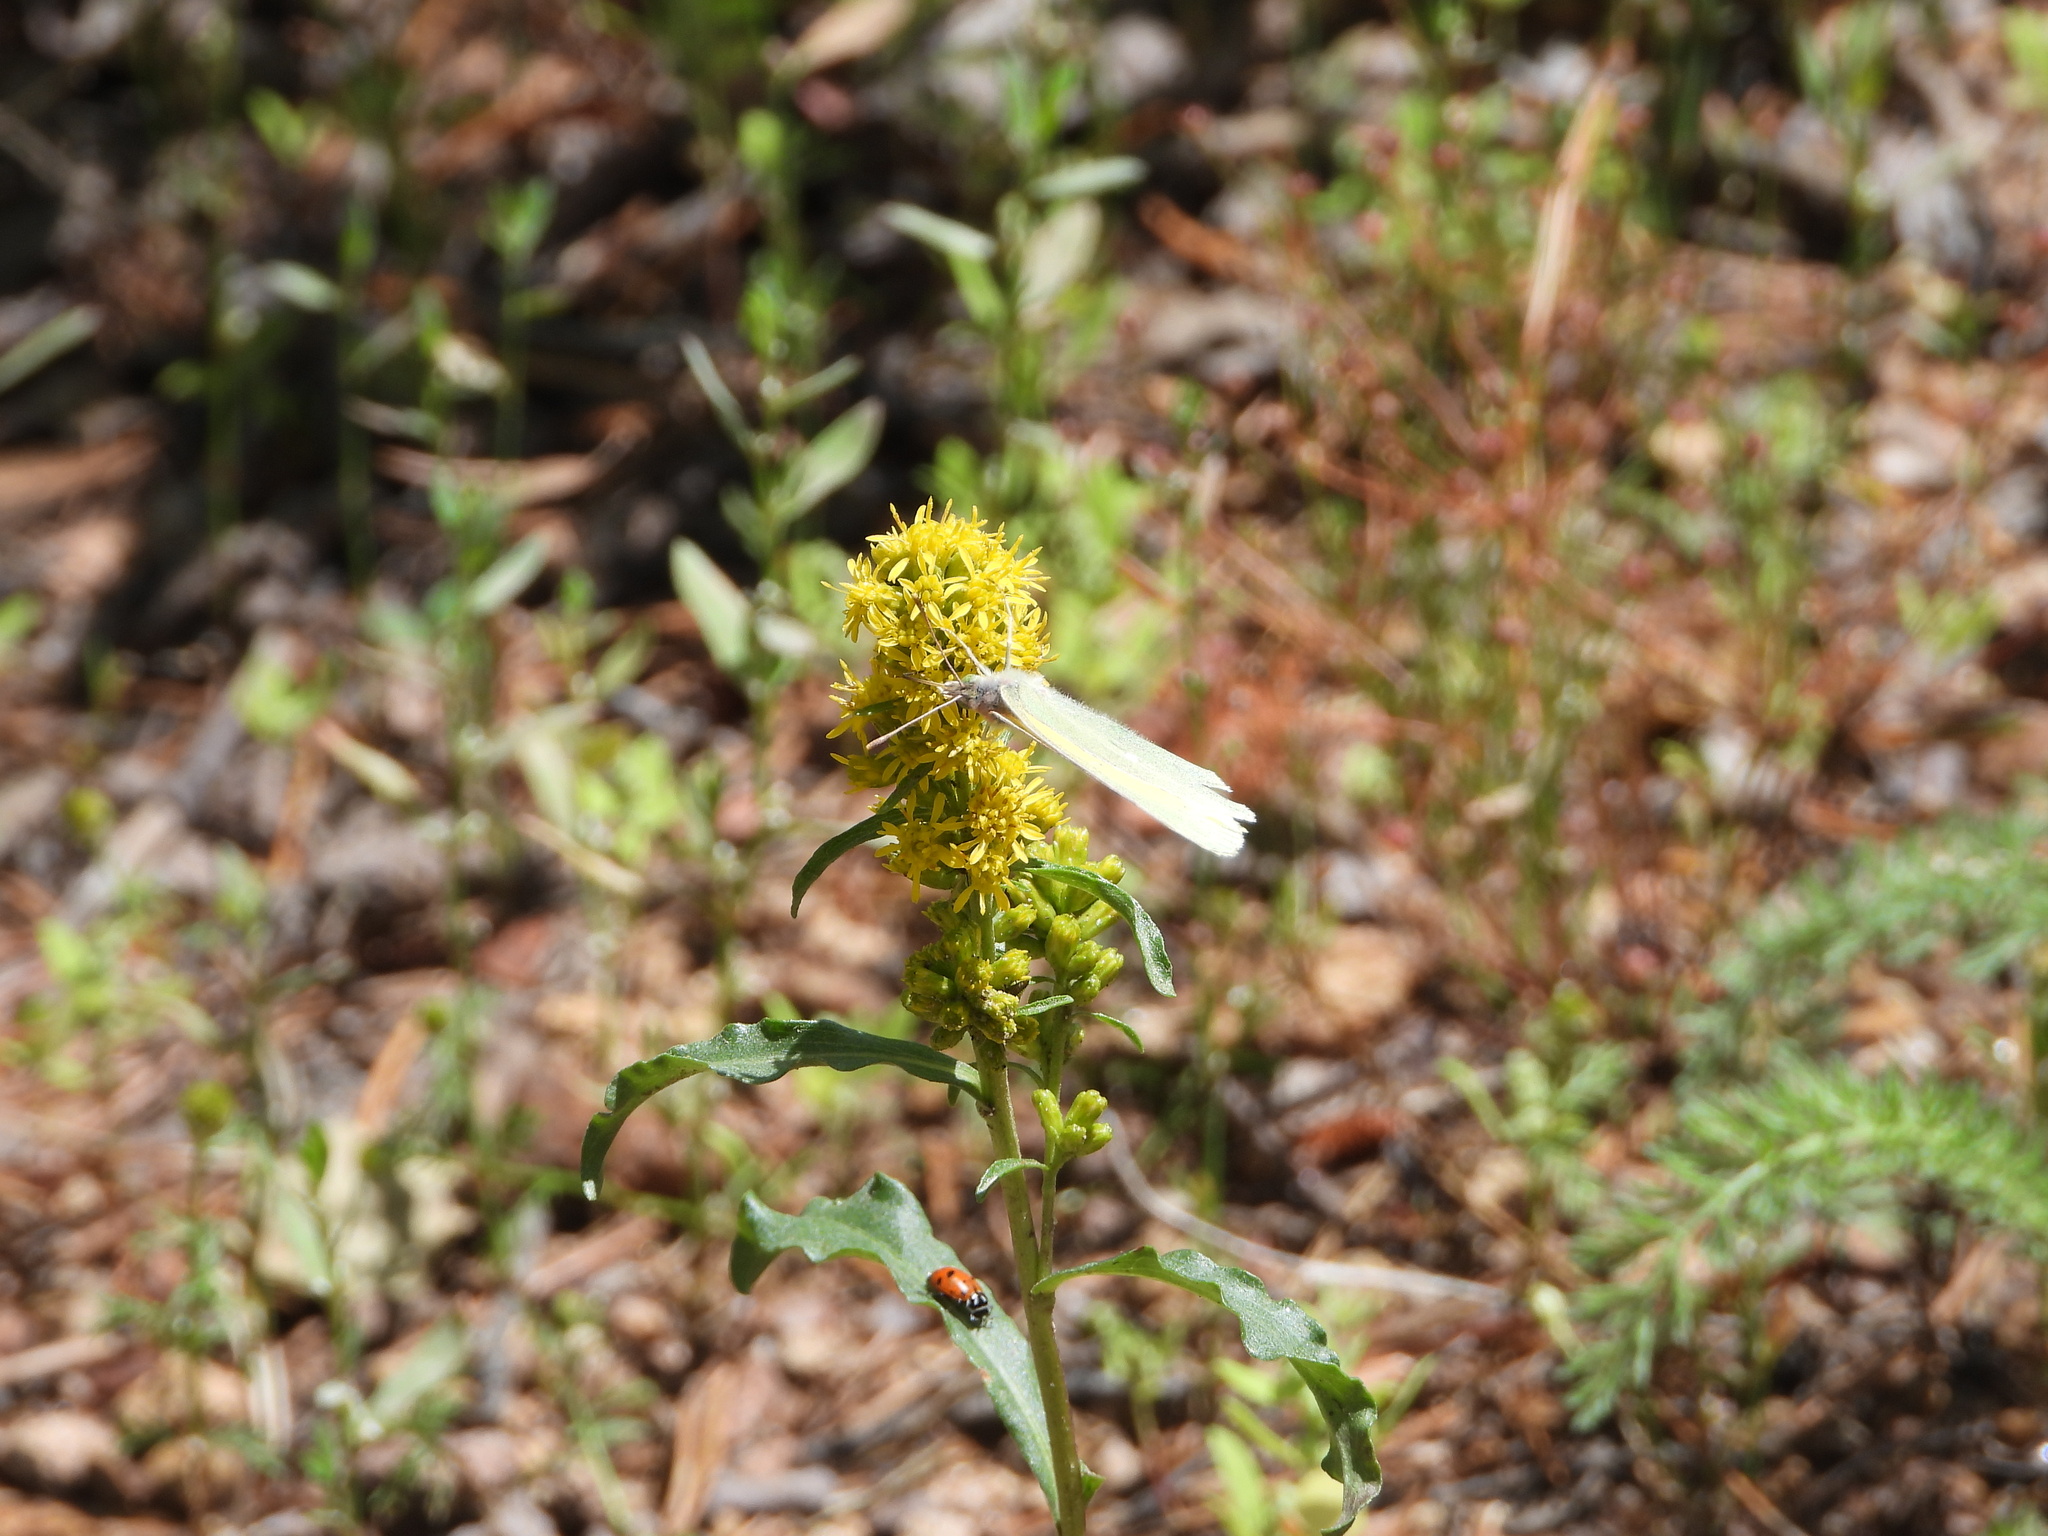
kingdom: Animalia
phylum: Arthropoda
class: Insecta
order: Coleoptera
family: Coccinellidae
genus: Hippodamia
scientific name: Hippodamia convergens
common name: Convergent lady beetle
